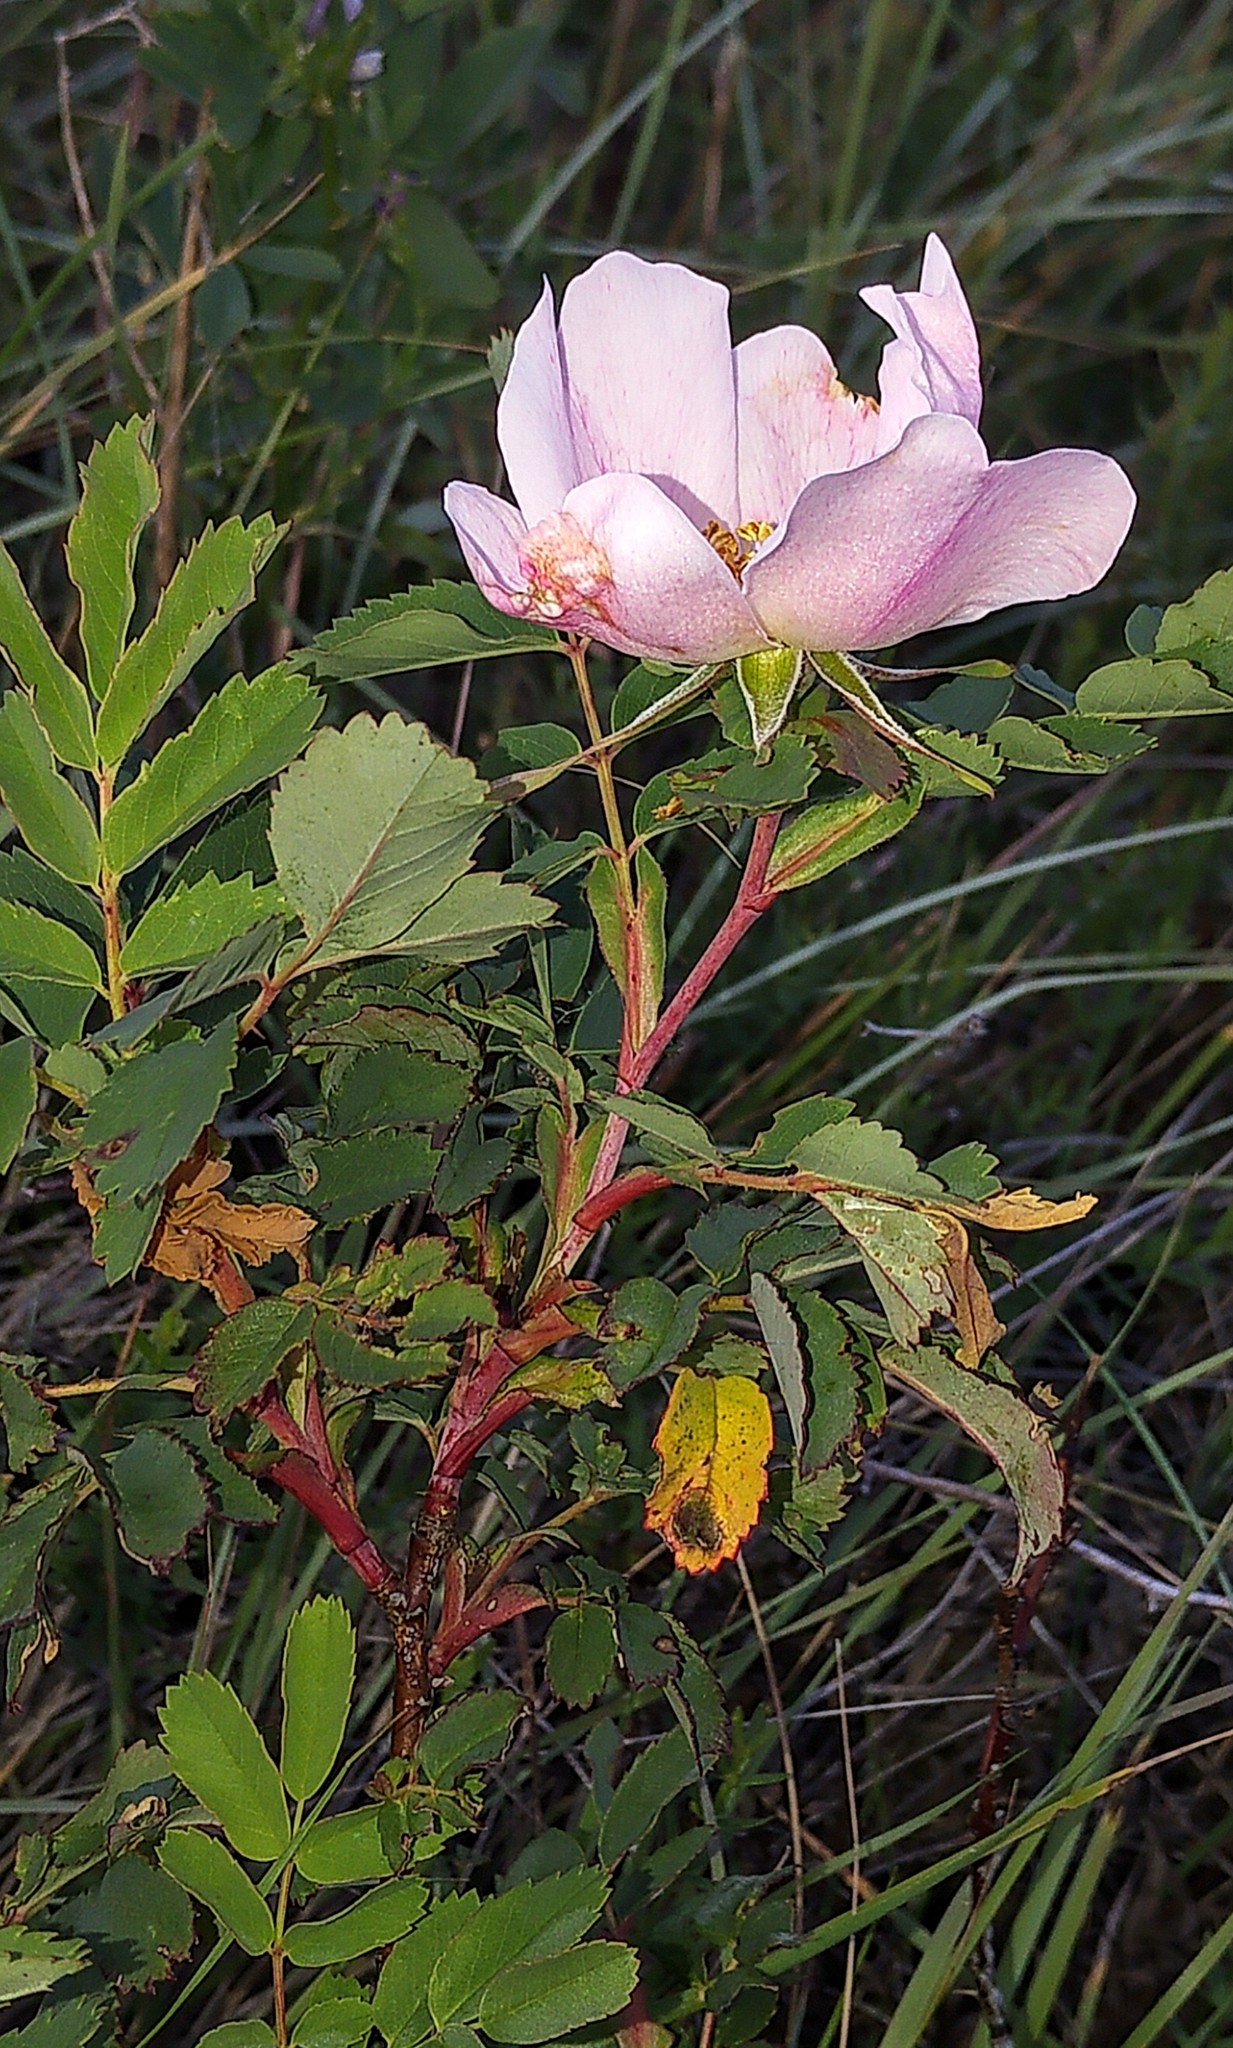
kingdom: Plantae
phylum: Tracheophyta
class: Magnoliopsida
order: Rosales
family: Rosaceae
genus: Rosa
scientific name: Rosa woodsii
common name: Woods's rose
